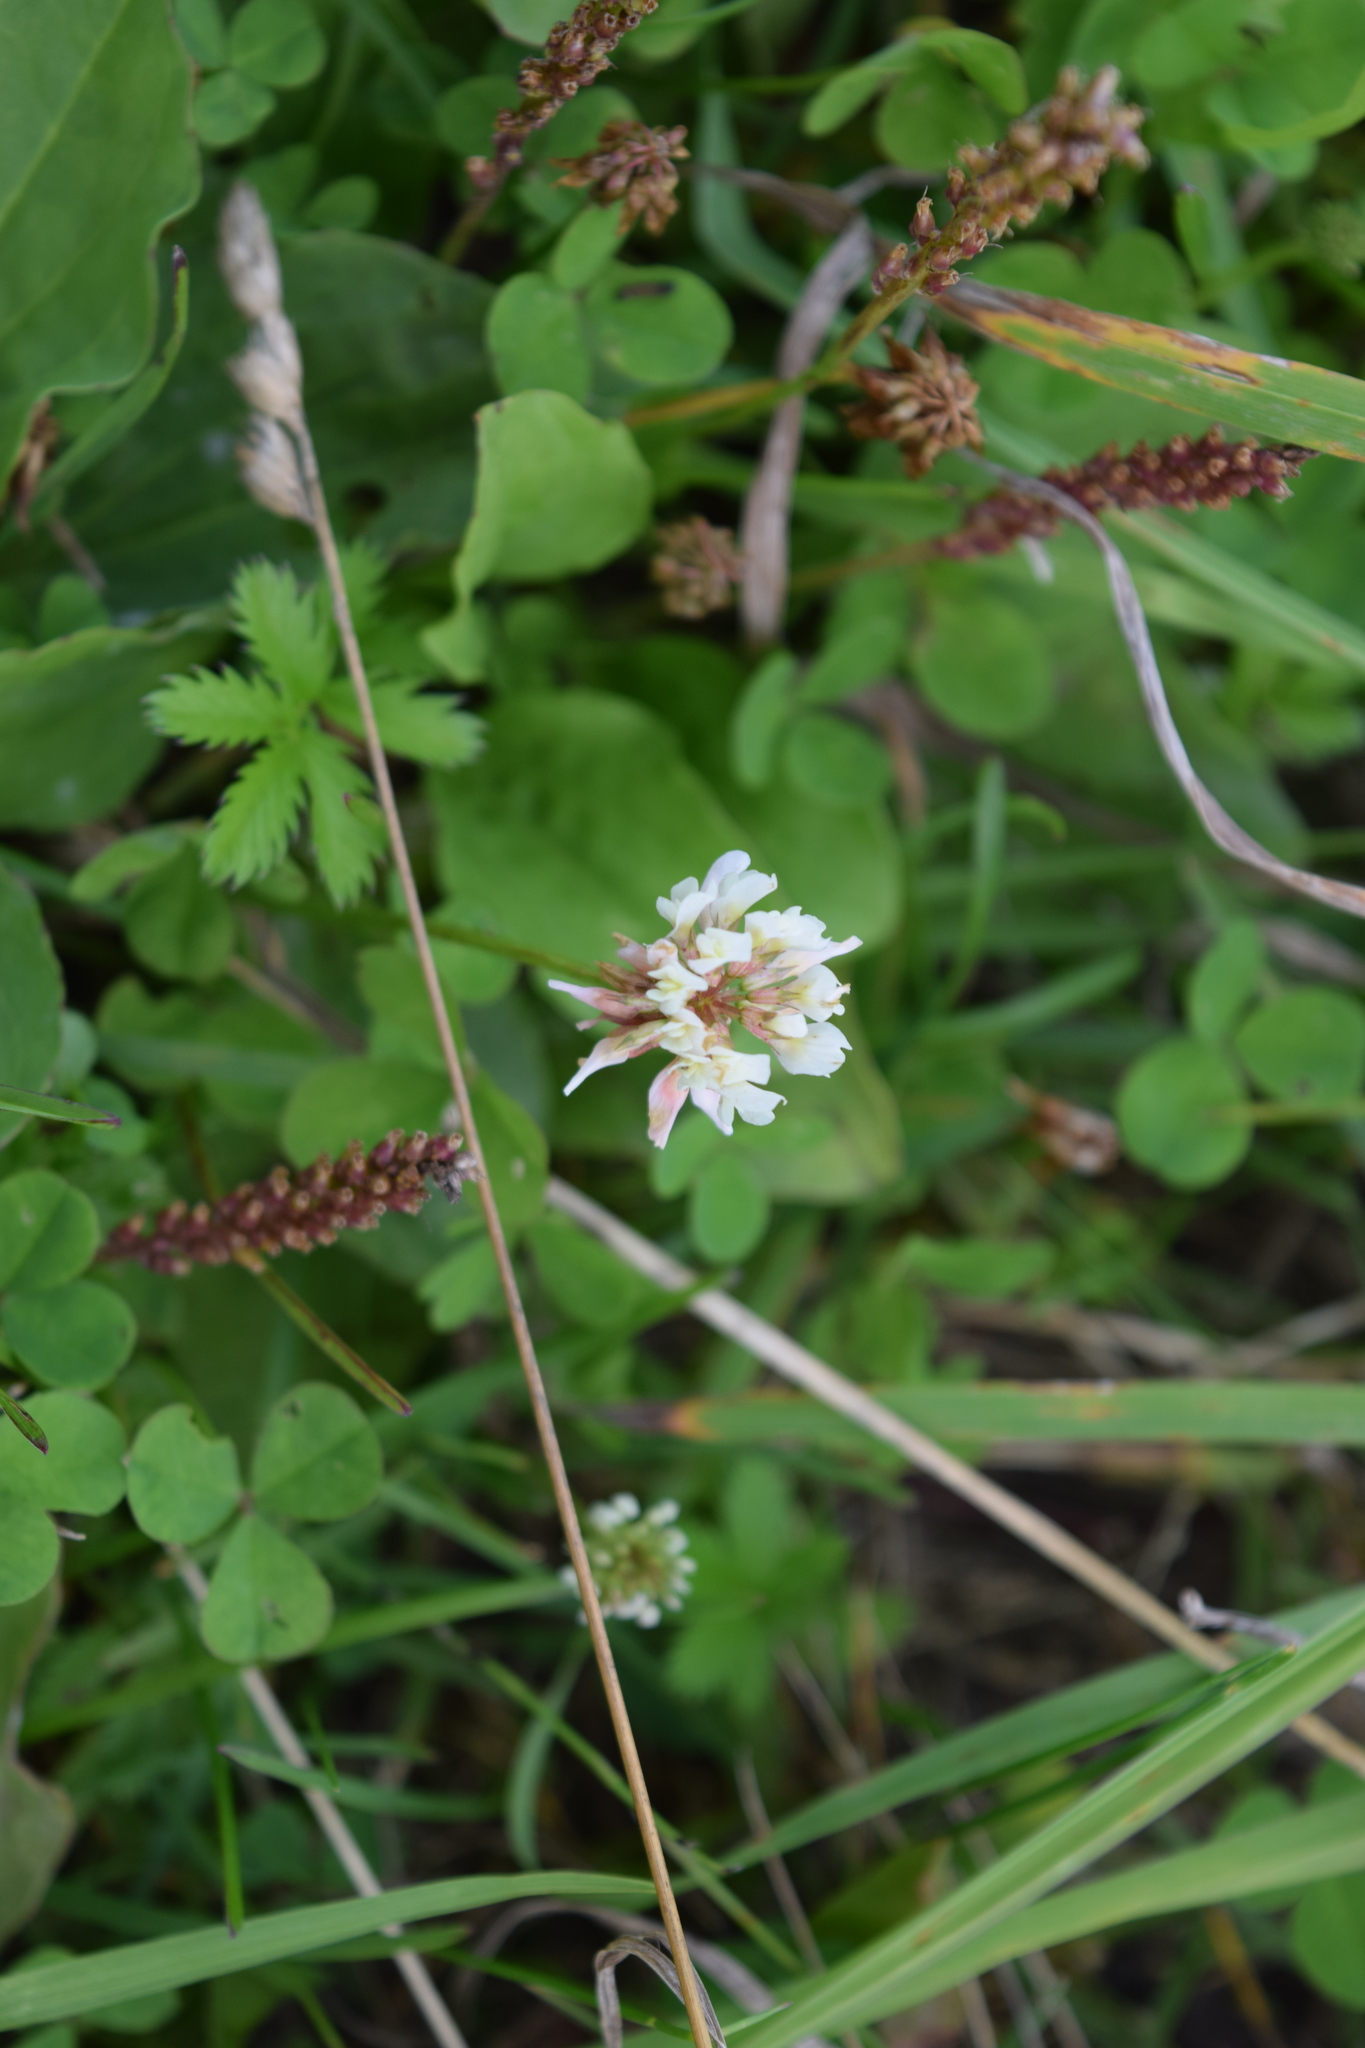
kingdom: Plantae
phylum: Tracheophyta
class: Magnoliopsida
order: Fabales
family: Fabaceae
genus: Trifolium
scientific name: Trifolium repens
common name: White clover
